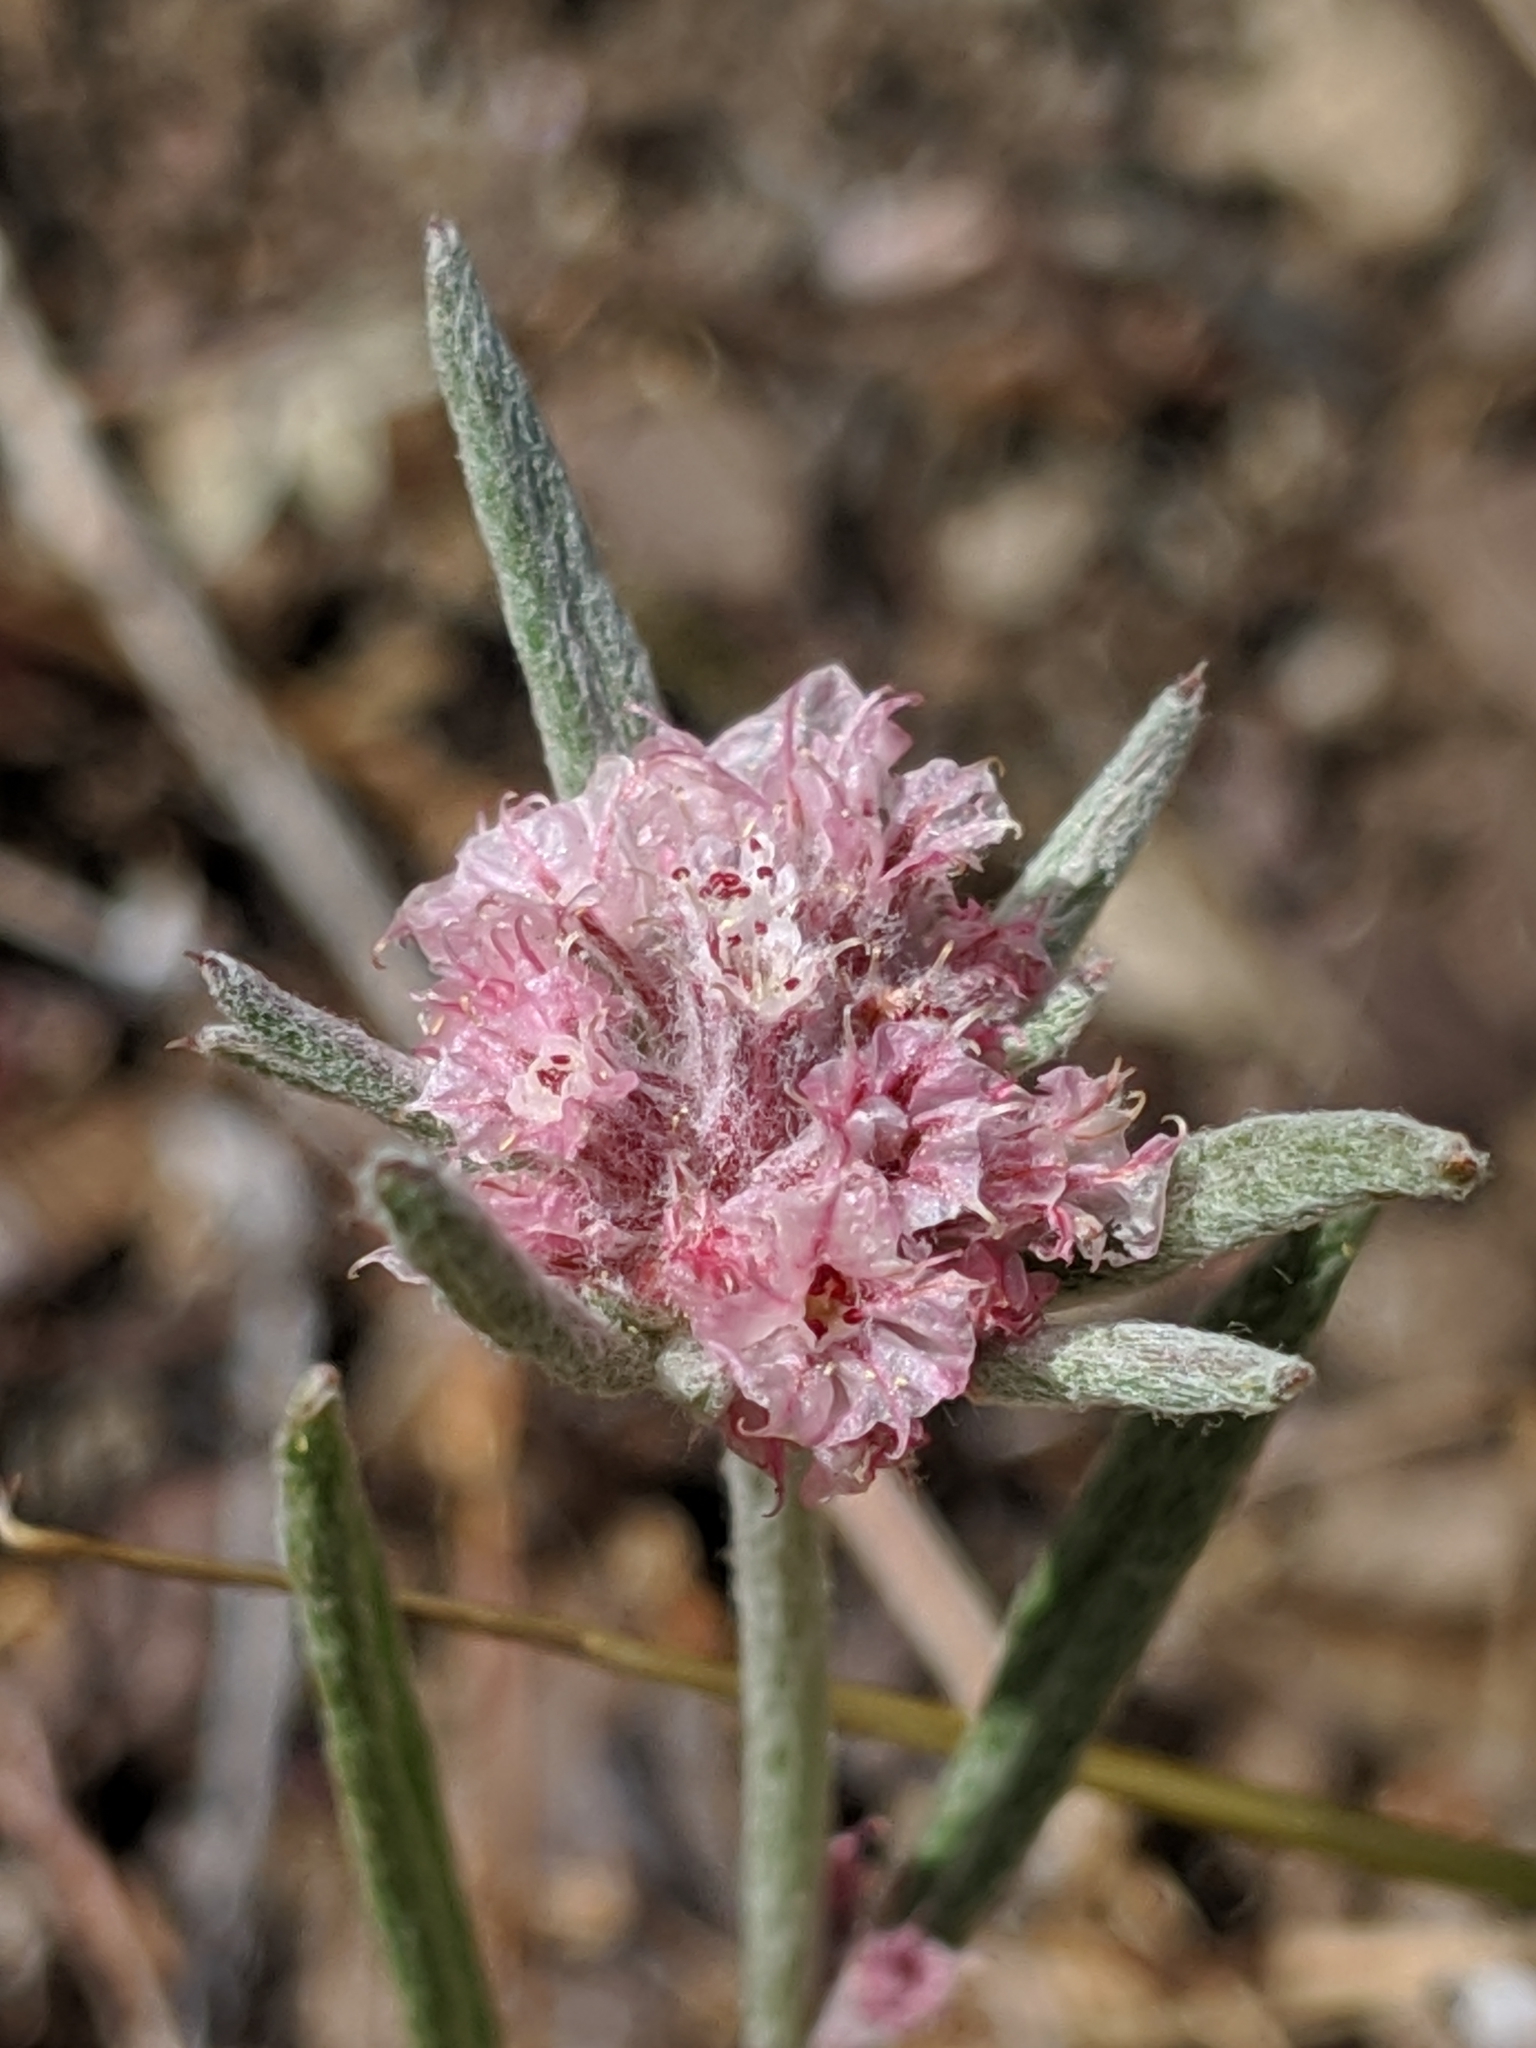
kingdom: Plantae
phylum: Tracheophyta
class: Magnoliopsida
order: Caryophyllales
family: Polygonaceae
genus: Chorizanthe
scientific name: Chorizanthe membranacea
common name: Pink spineflower
